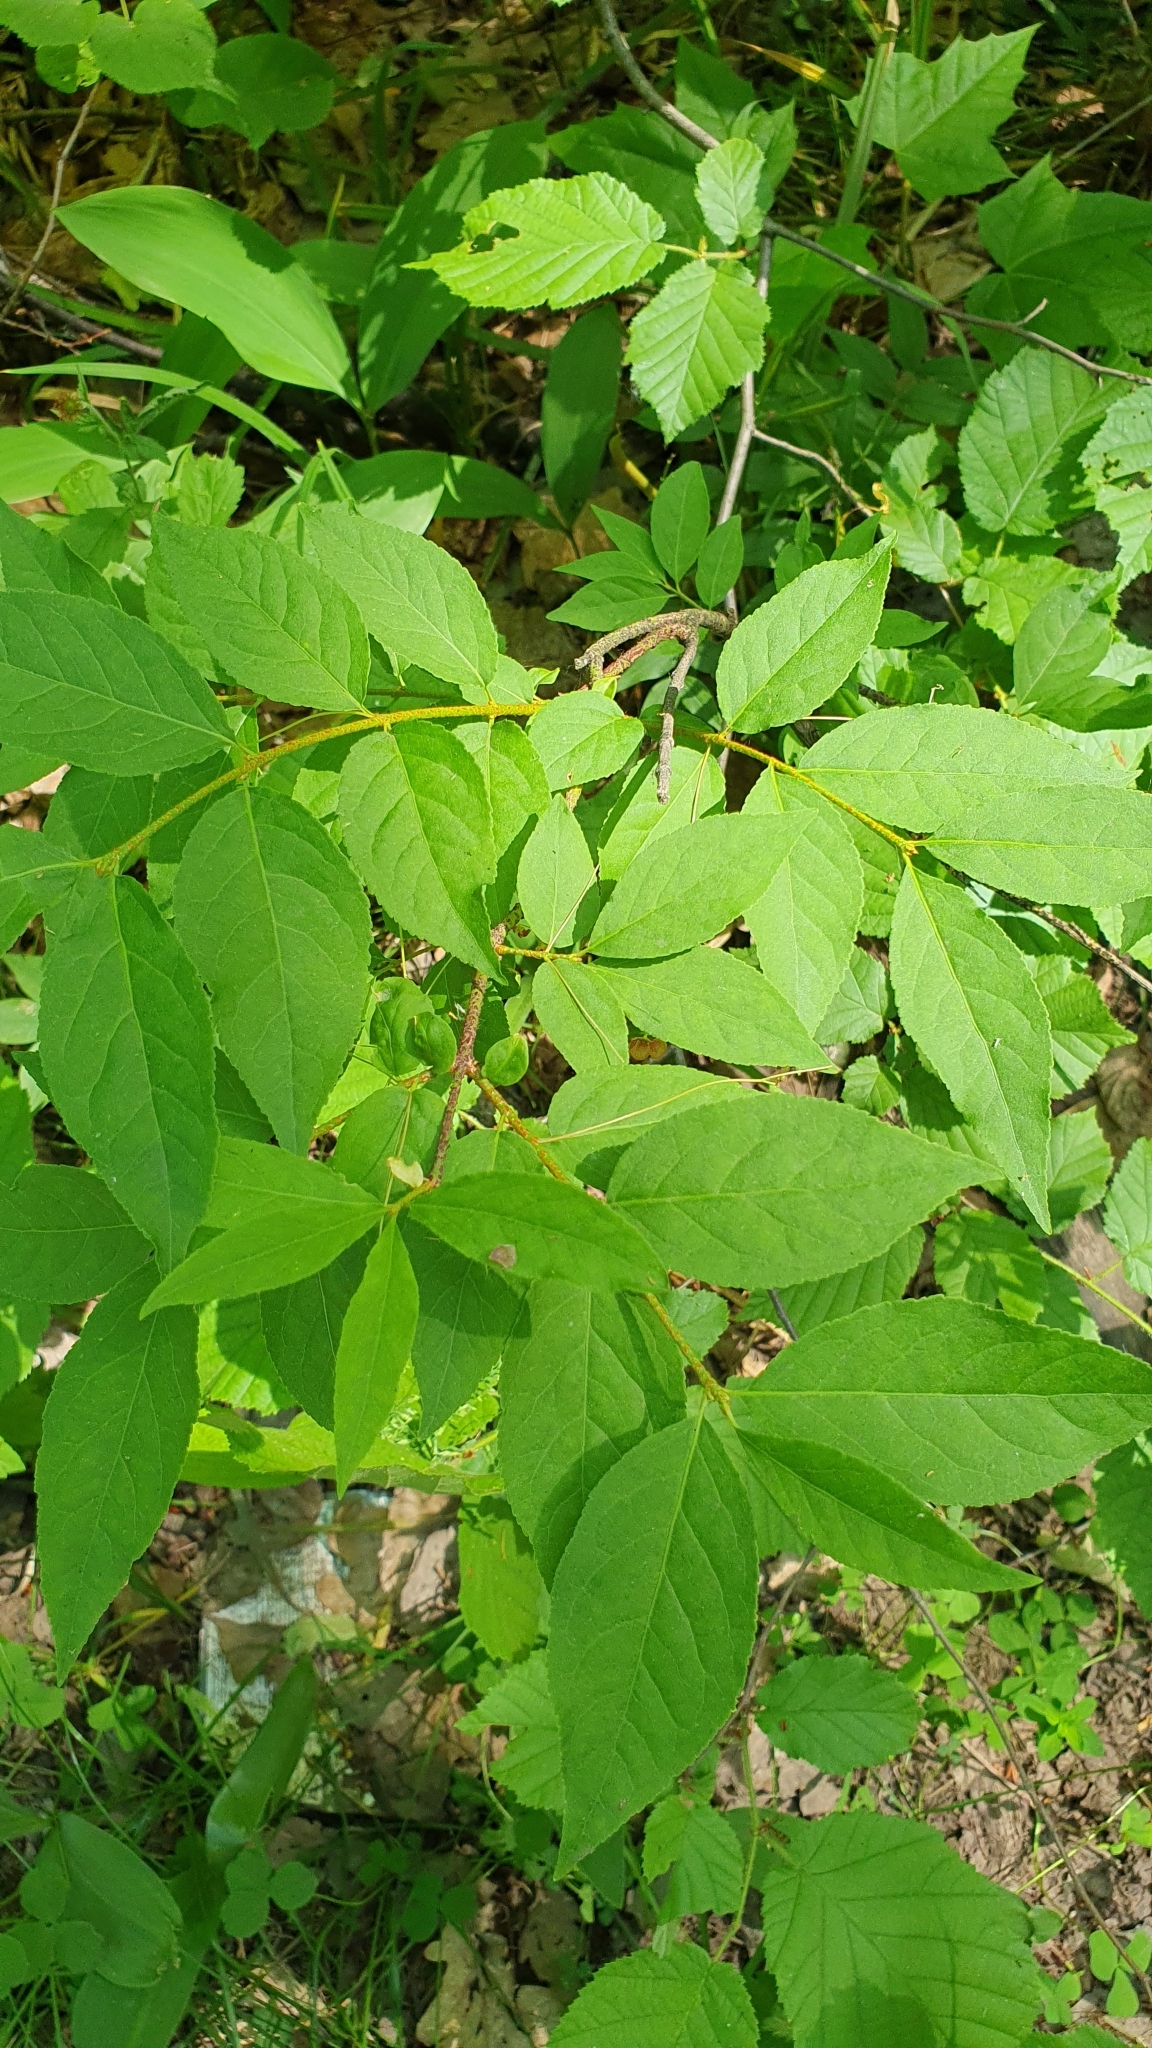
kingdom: Plantae
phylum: Tracheophyta
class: Magnoliopsida
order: Celastrales
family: Celastraceae
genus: Euonymus
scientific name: Euonymus verrucosus
